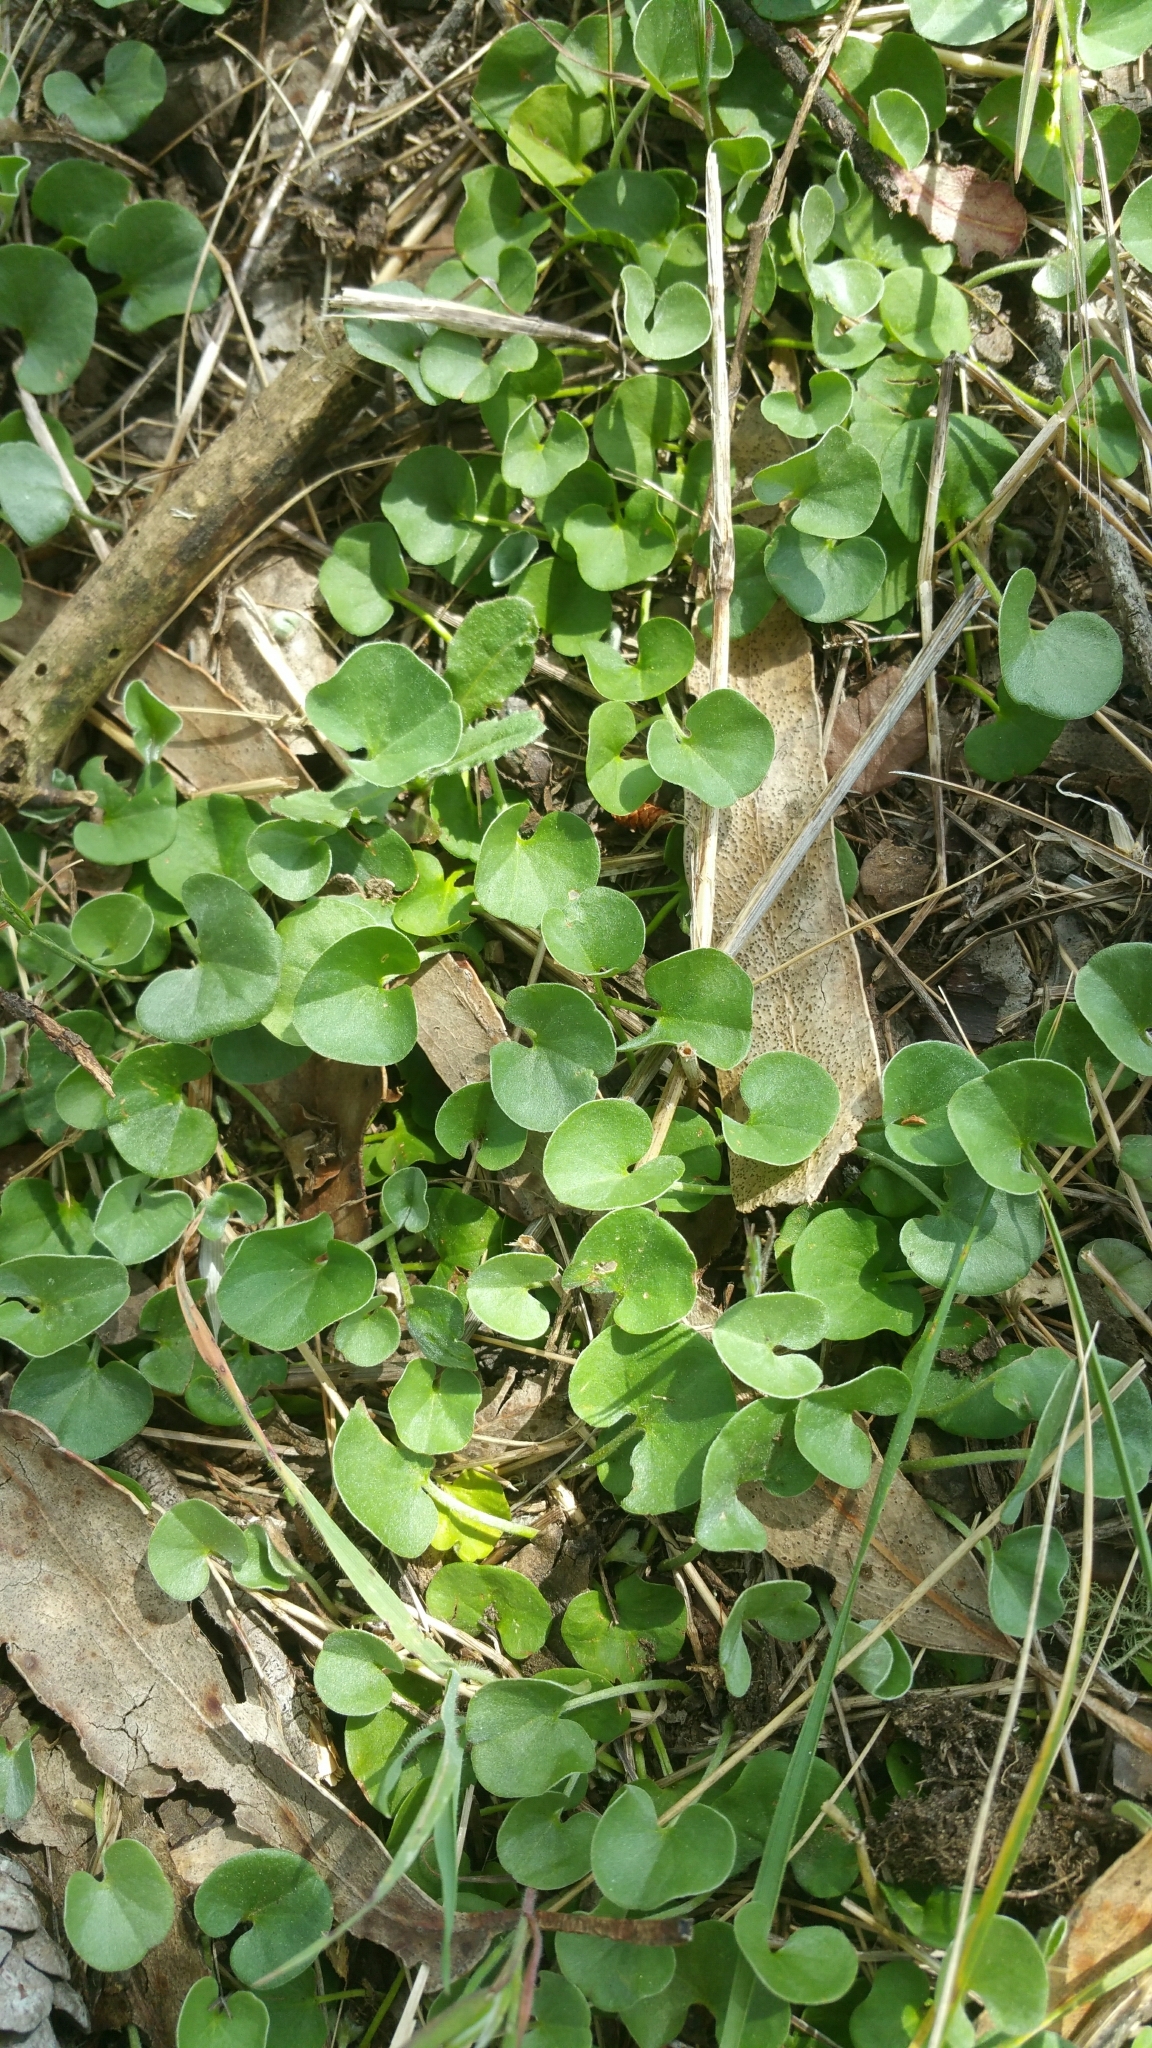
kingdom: Plantae
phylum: Tracheophyta
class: Magnoliopsida
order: Solanales
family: Convolvulaceae
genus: Dichondra
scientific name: Dichondra donelliana
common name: California ponysfoot
